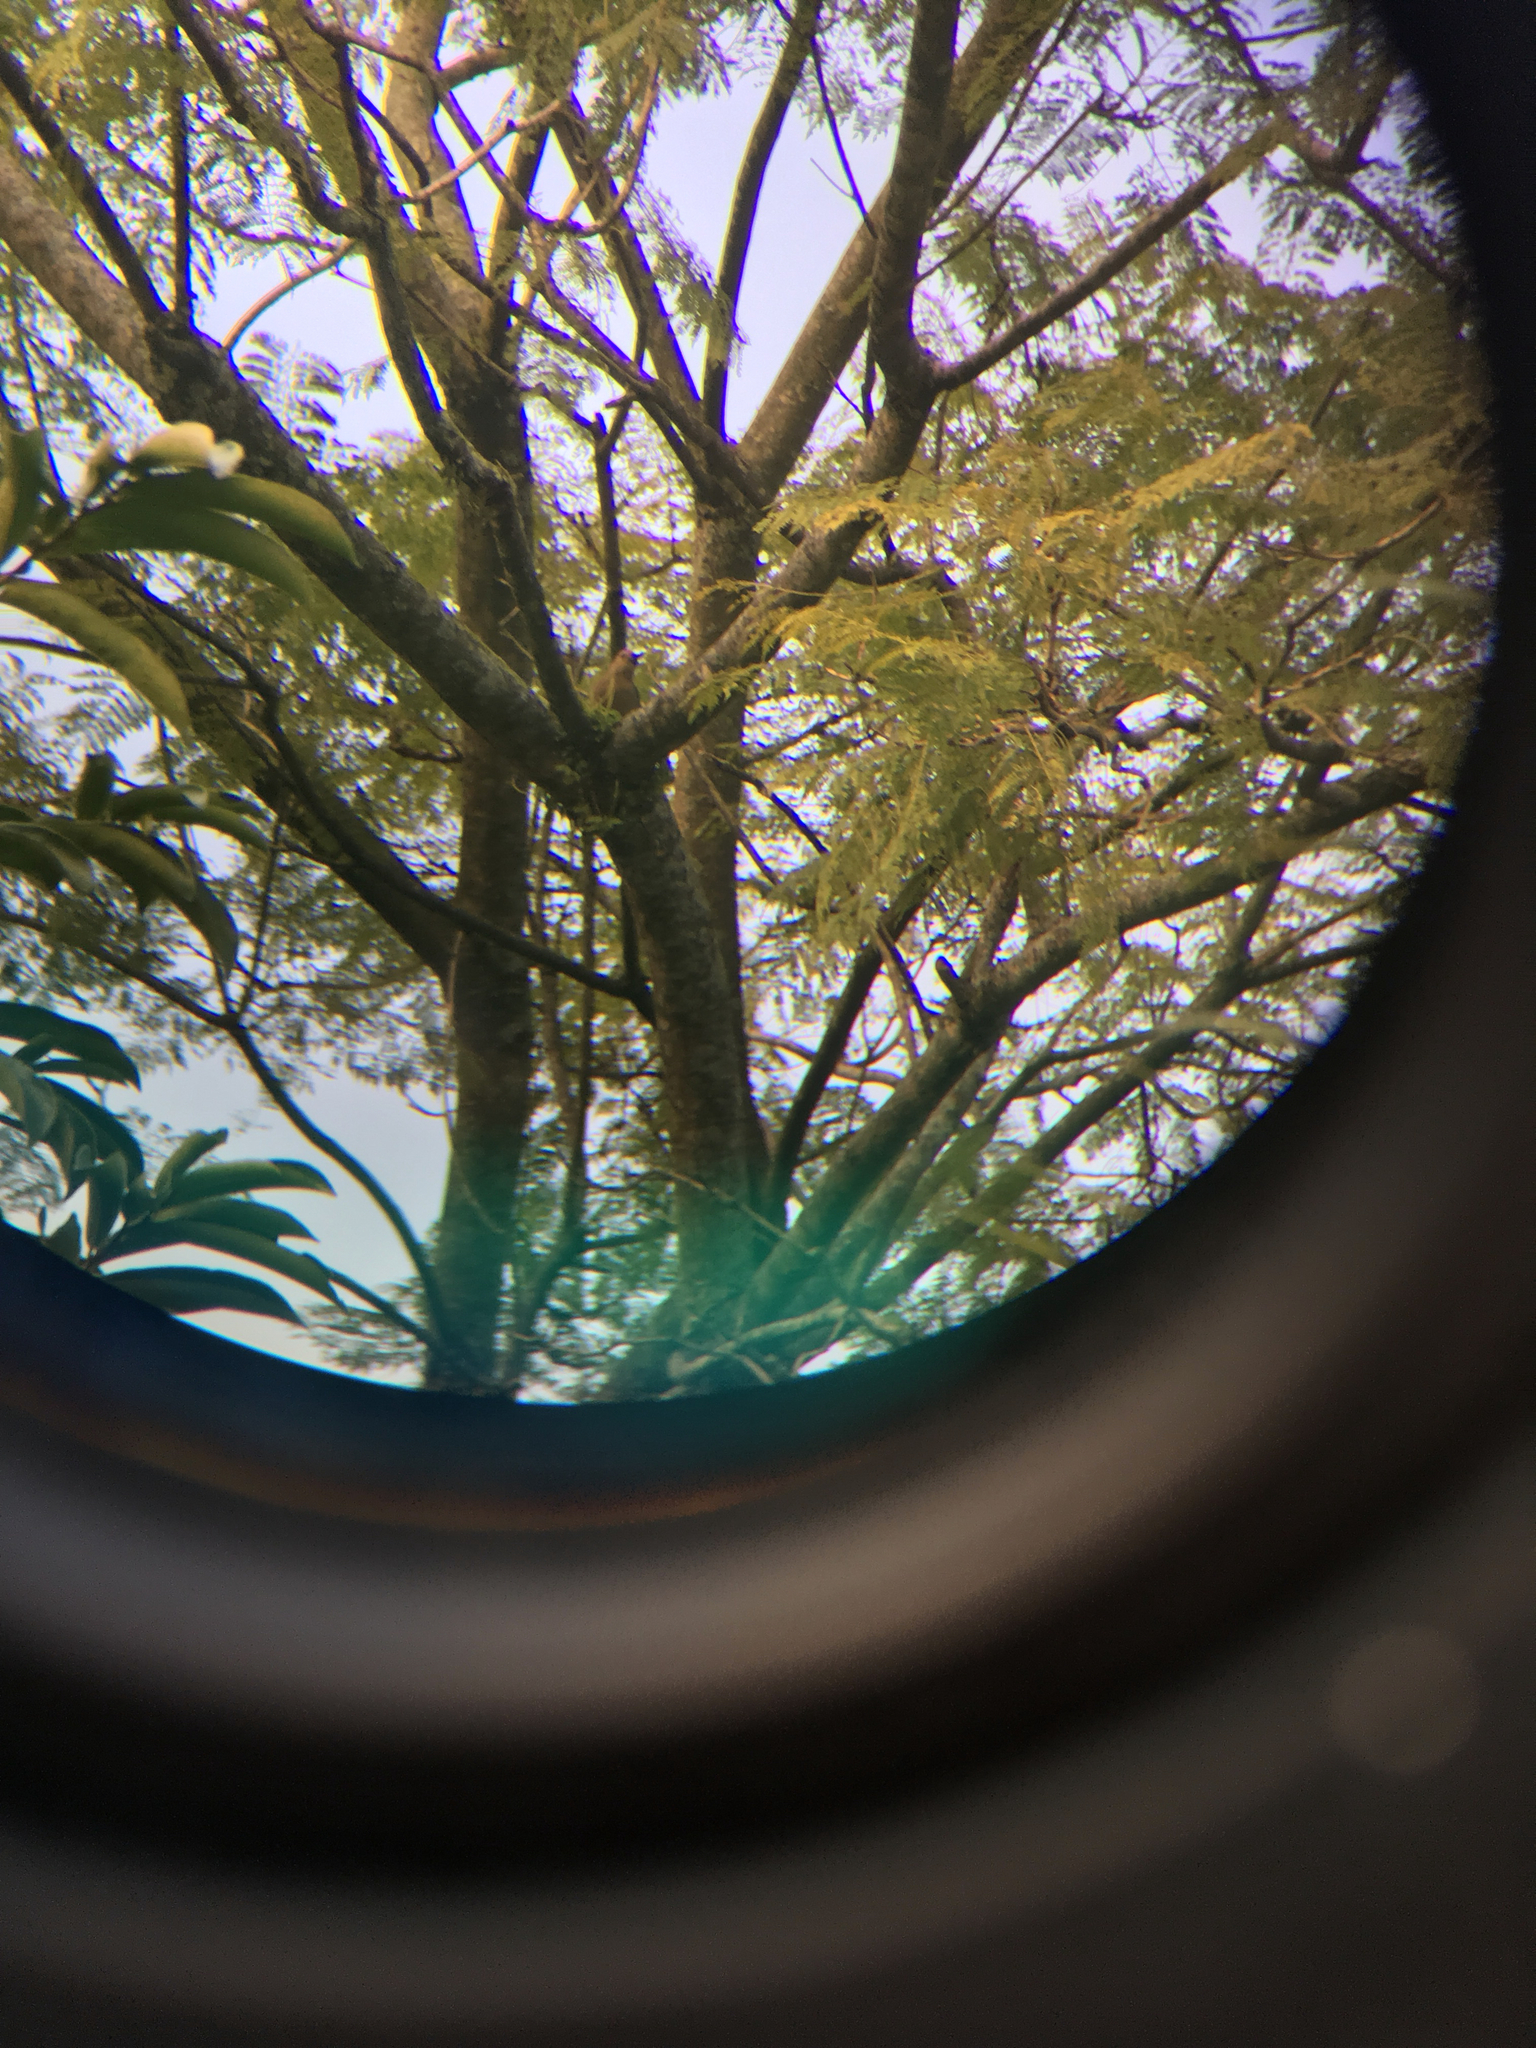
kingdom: Animalia
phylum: Chordata
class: Aves
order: Piciformes
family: Picidae
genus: Melanerpes
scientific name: Melanerpes aurifrons
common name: Golden-fronted woodpecker
